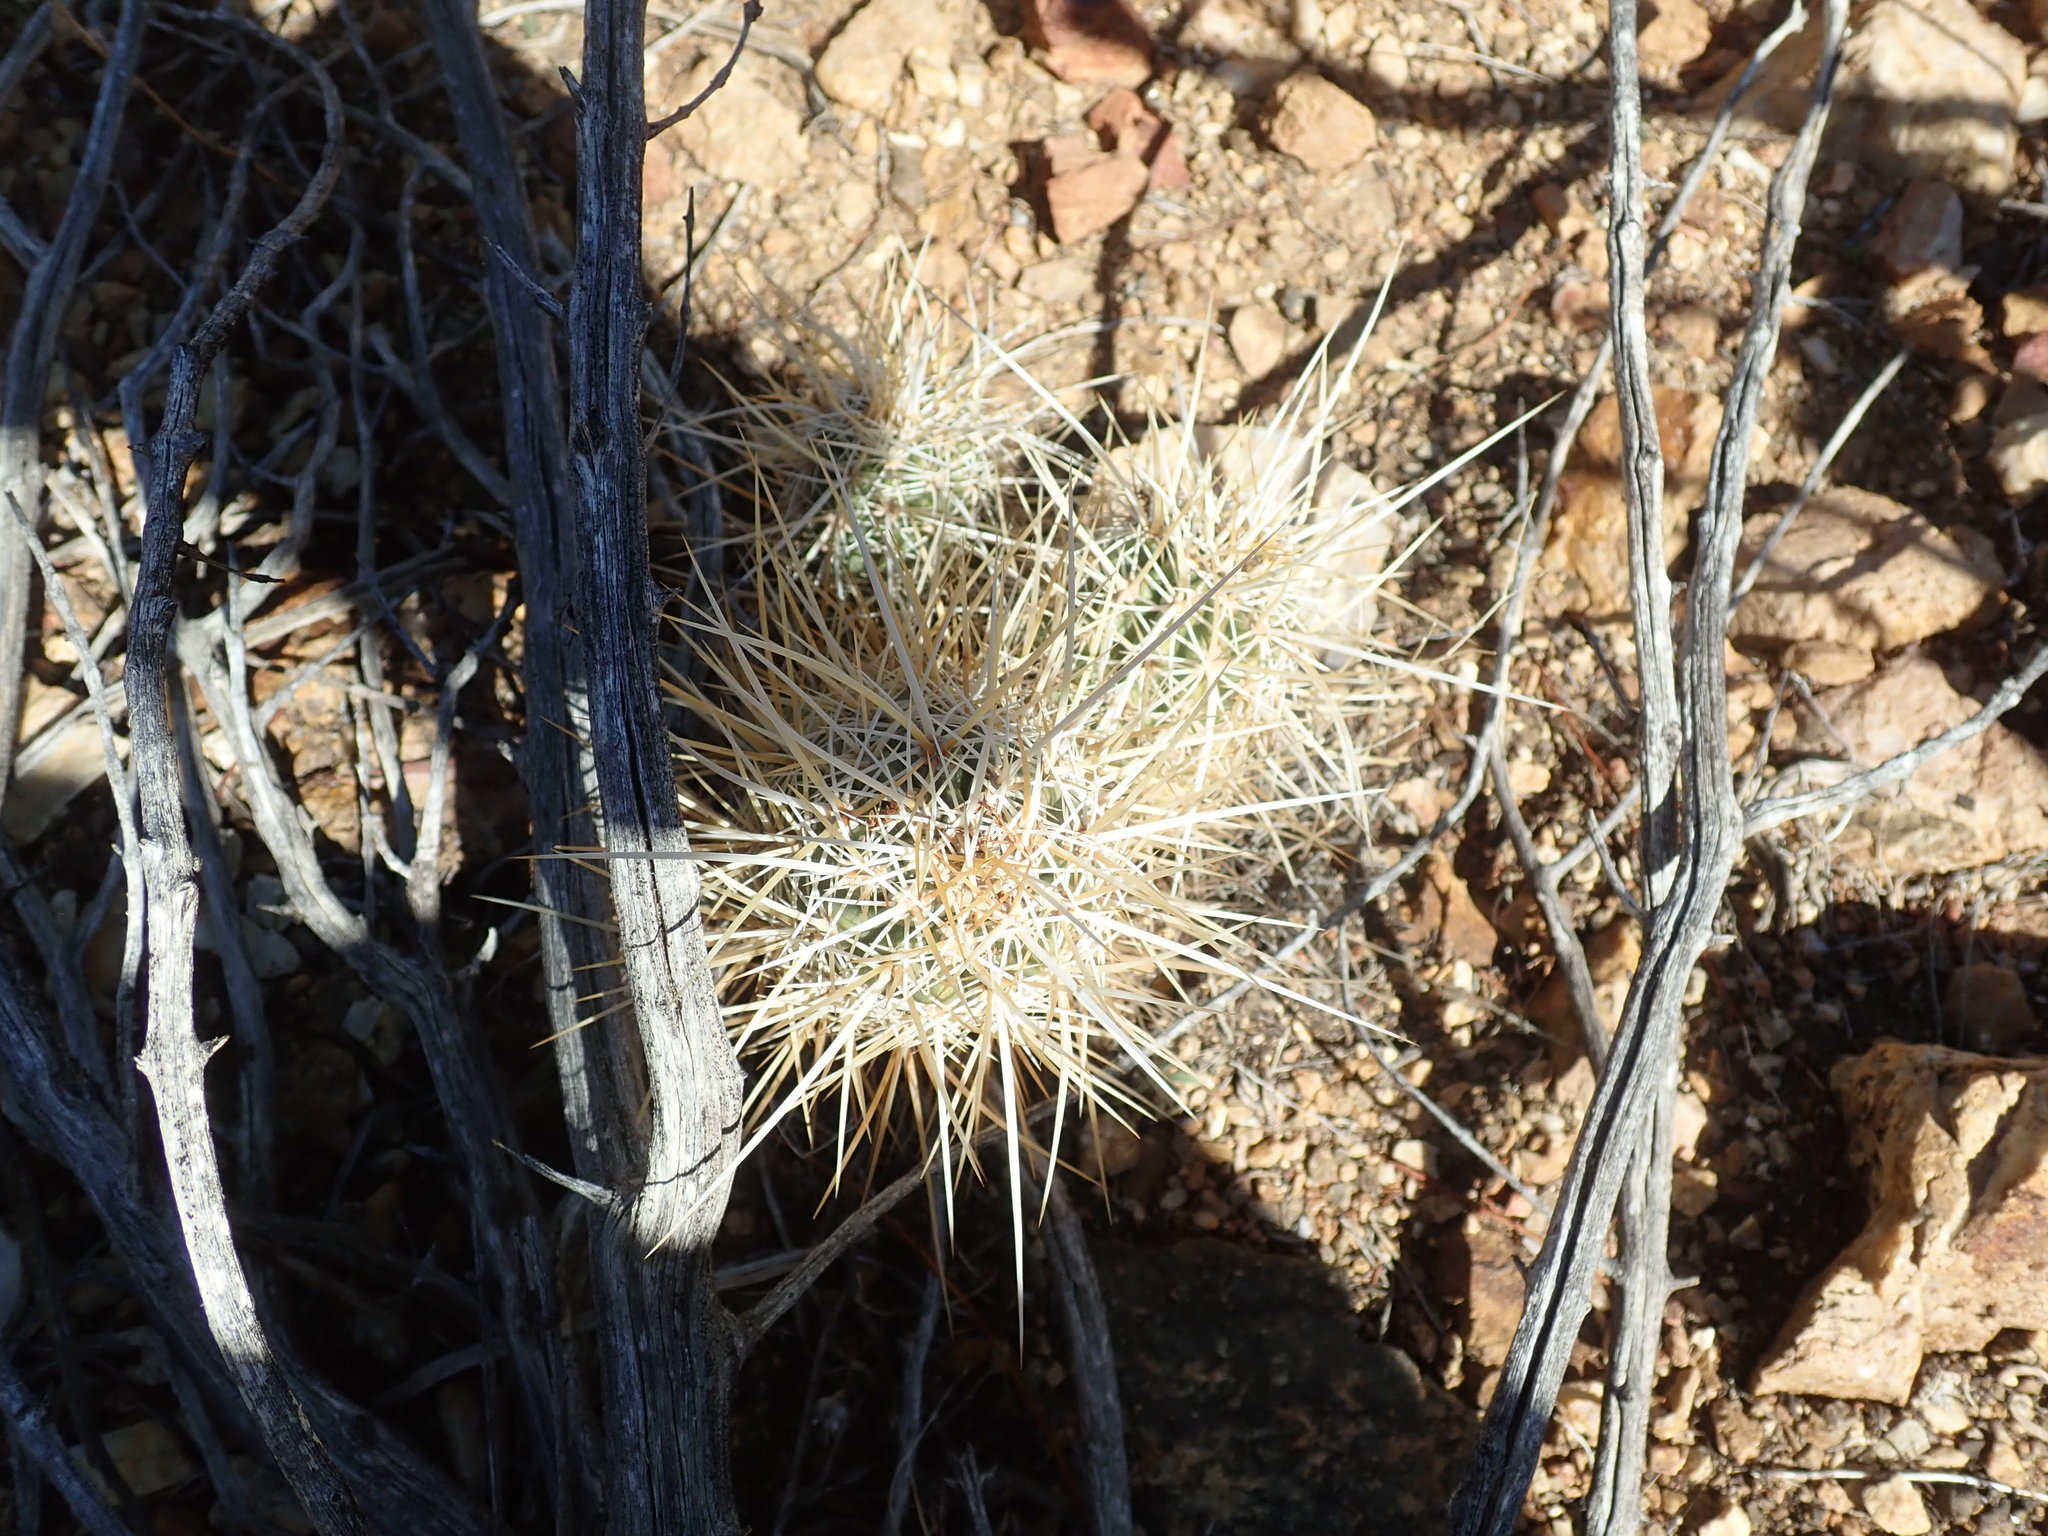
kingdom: Plantae
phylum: Tracheophyta
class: Magnoliopsida
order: Caryophyllales
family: Cactaceae
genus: Echinocereus
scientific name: Echinocereus engelmannii
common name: Engelmann's hedgehog cactus
